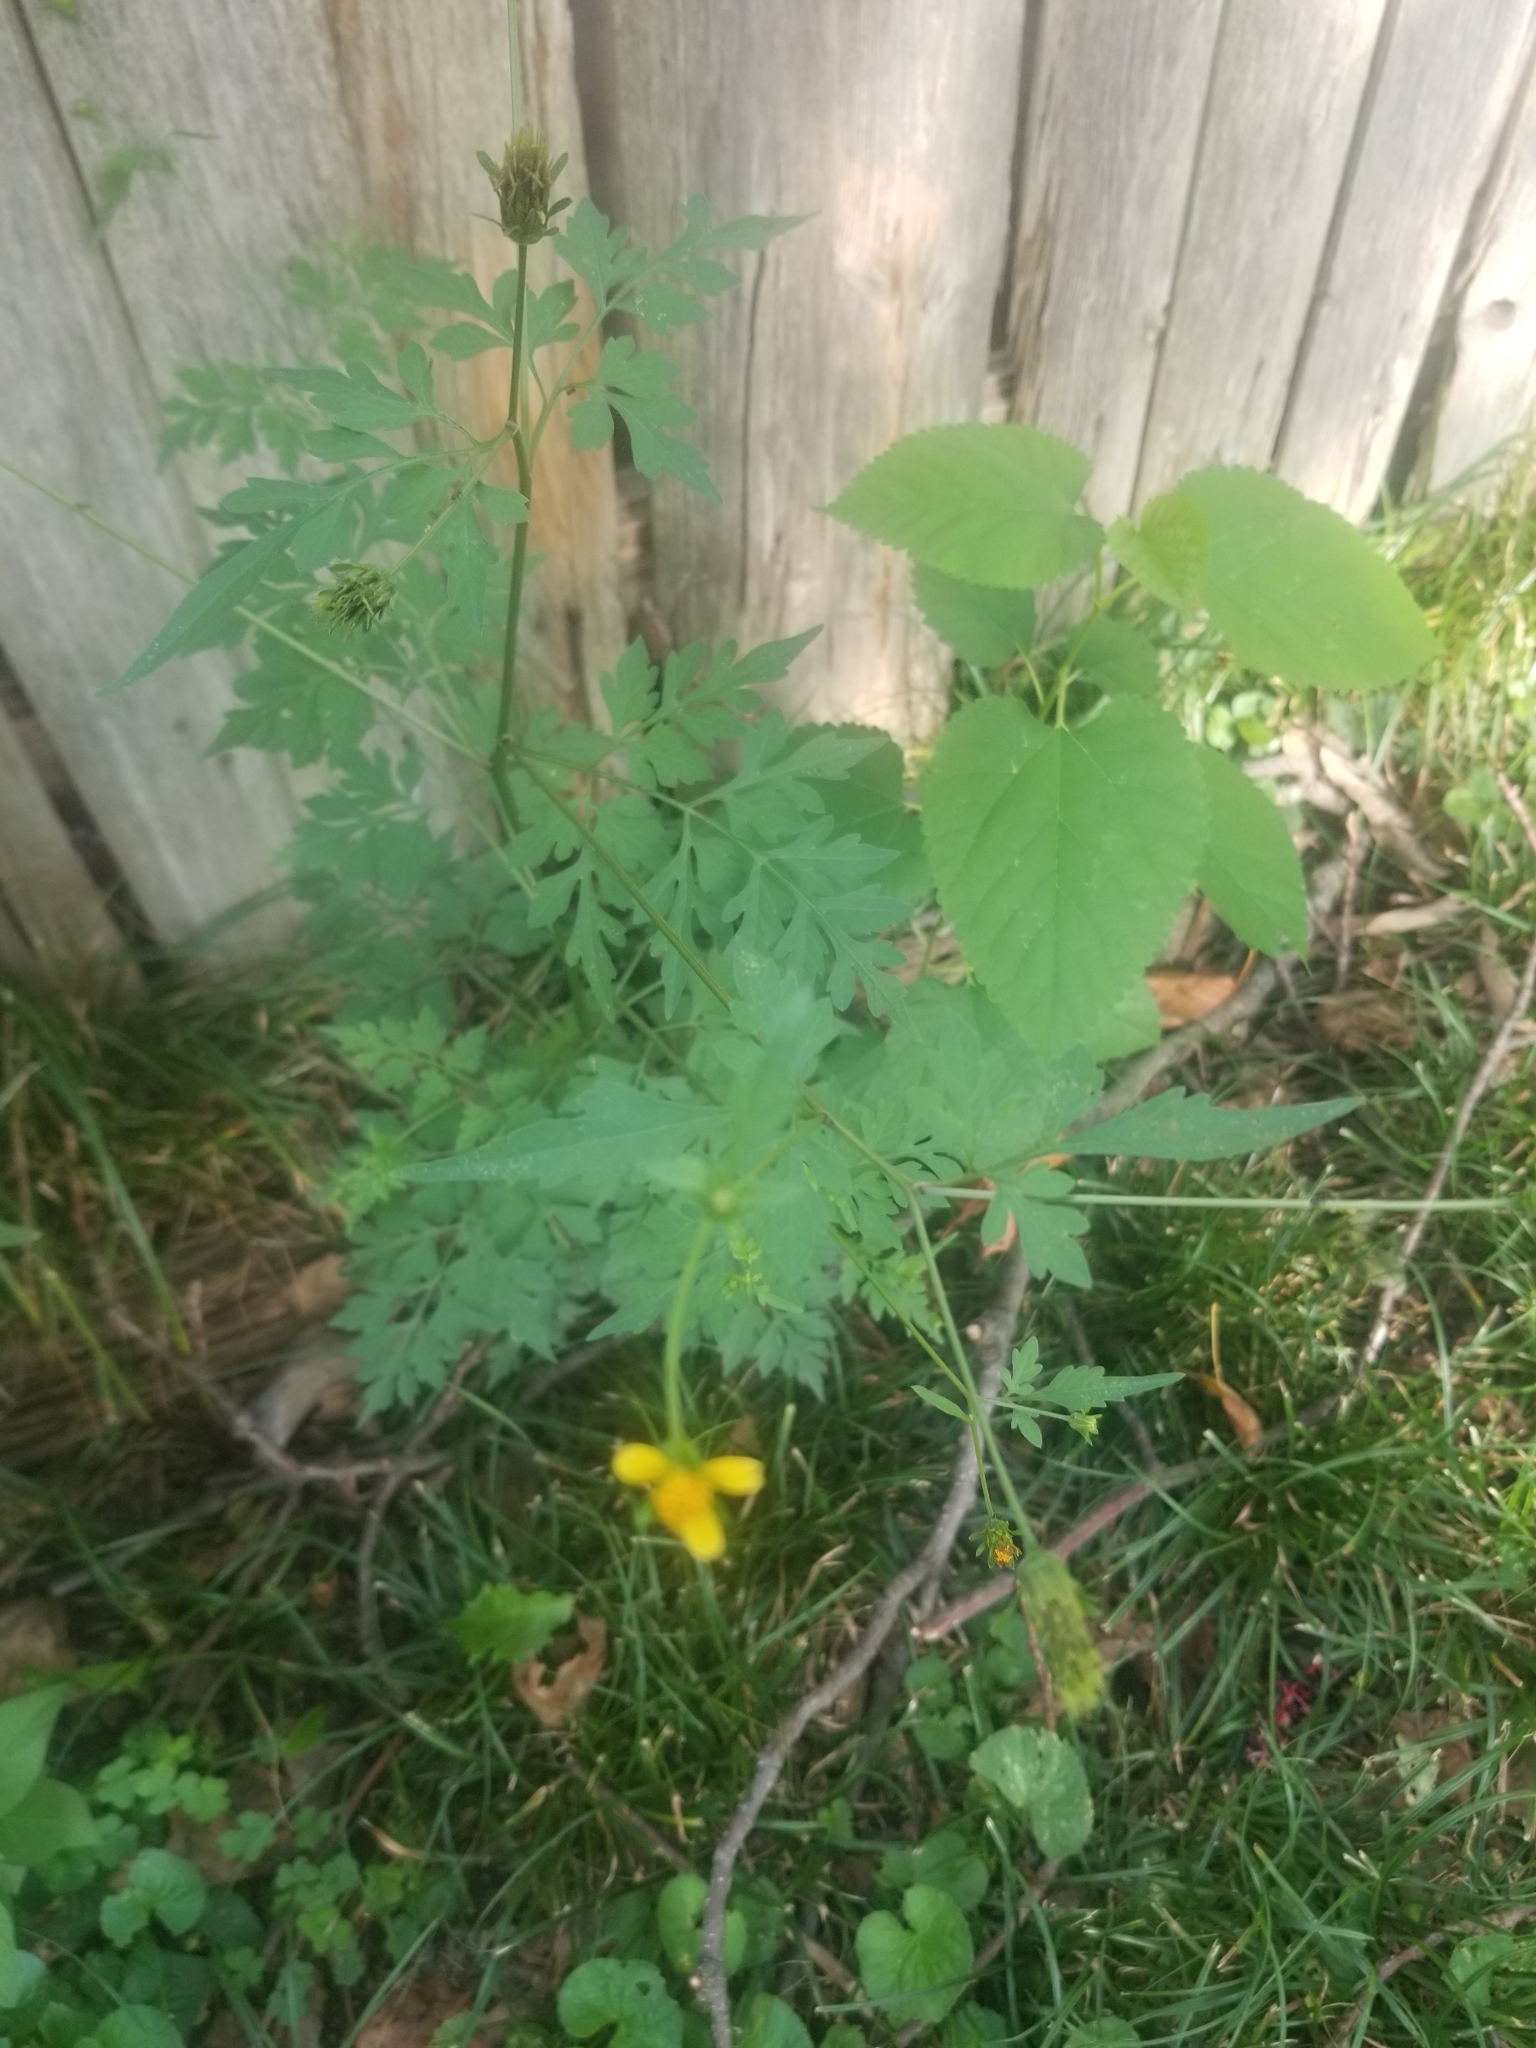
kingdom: Plantae
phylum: Tracheophyta
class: Magnoliopsida
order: Asterales
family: Asteraceae
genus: Bidens
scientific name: Bidens bipinnata
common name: Spanish-needles
